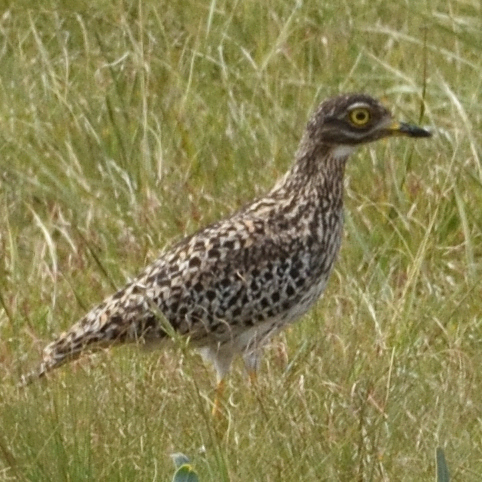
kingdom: Animalia
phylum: Chordata
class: Aves
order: Charadriiformes
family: Burhinidae
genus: Burhinus
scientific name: Burhinus capensis
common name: Spotted thick-knee
